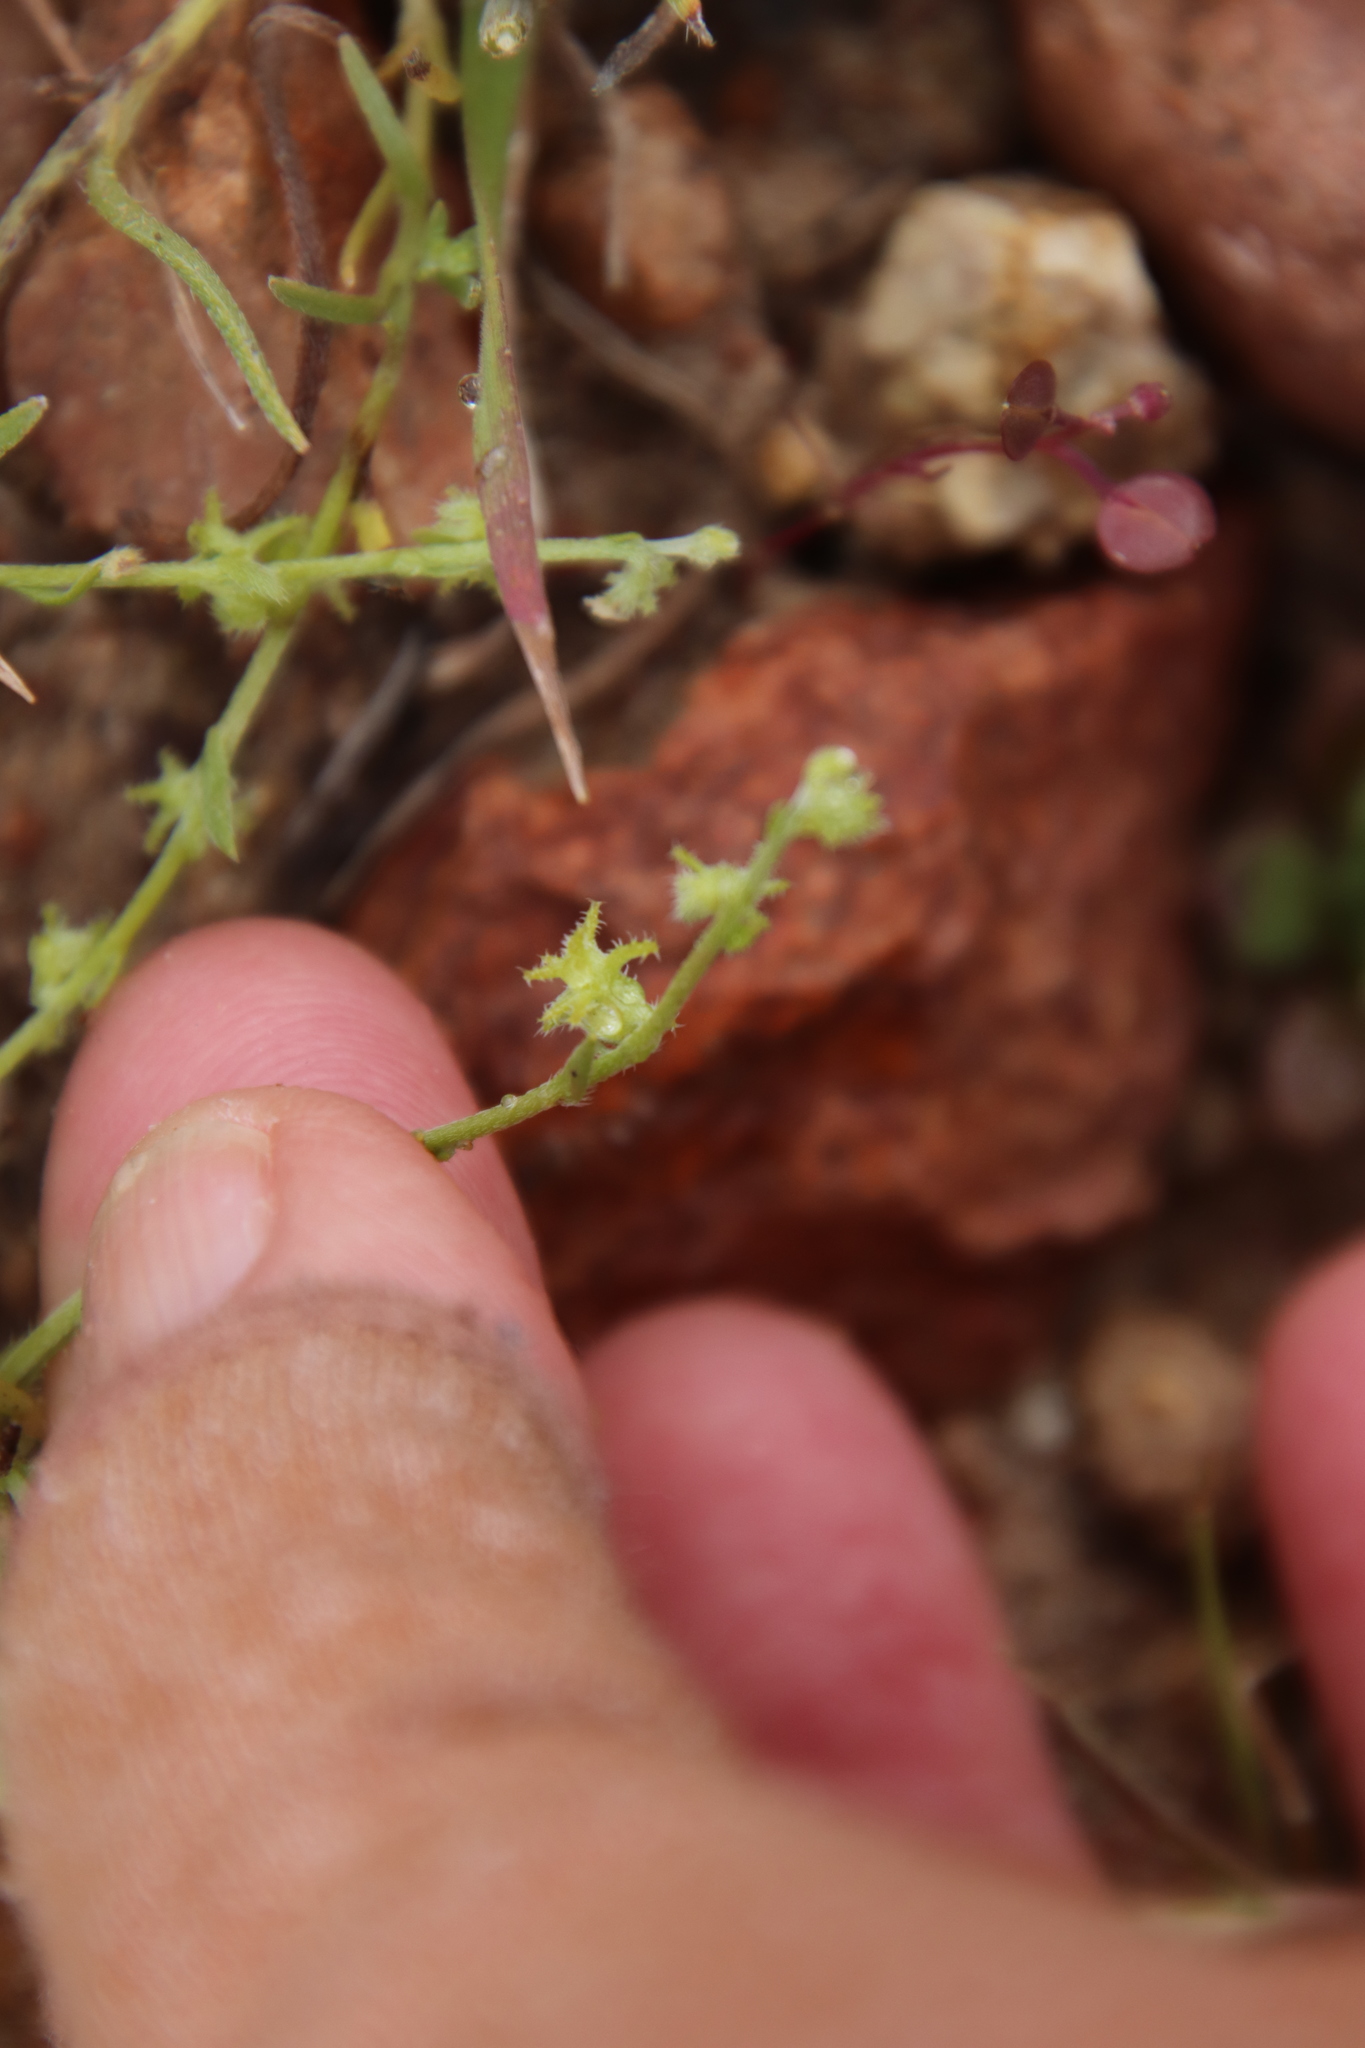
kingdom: Plantae
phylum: Tracheophyta
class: Magnoliopsida
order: Boraginales
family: Boraginaceae
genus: Harpagonella
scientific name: Harpagonella palmeri
